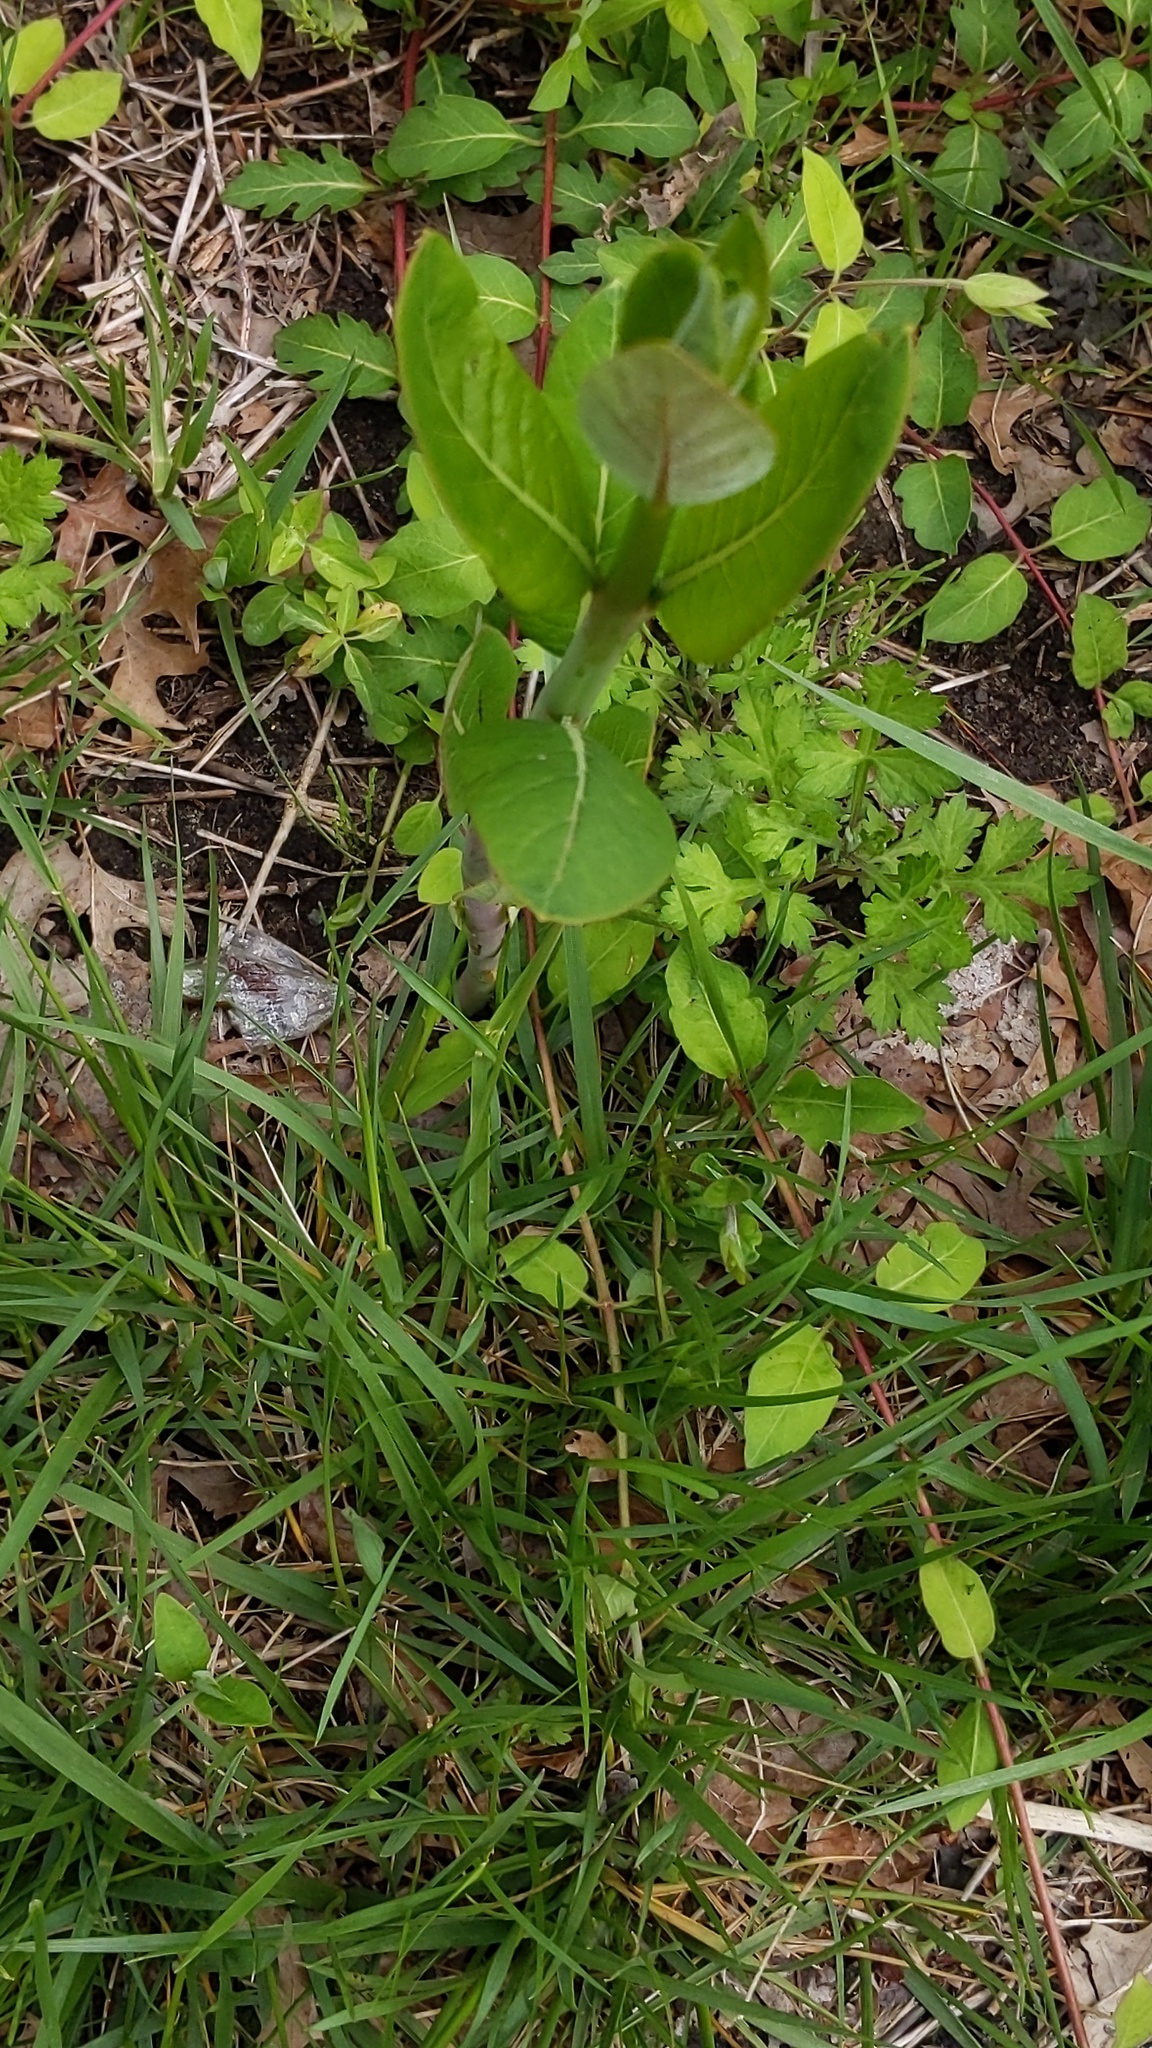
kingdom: Plantae
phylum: Tracheophyta
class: Magnoliopsida
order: Gentianales
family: Apocynaceae
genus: Asclepias
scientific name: Asclepias syriaca
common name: Common milkweed
